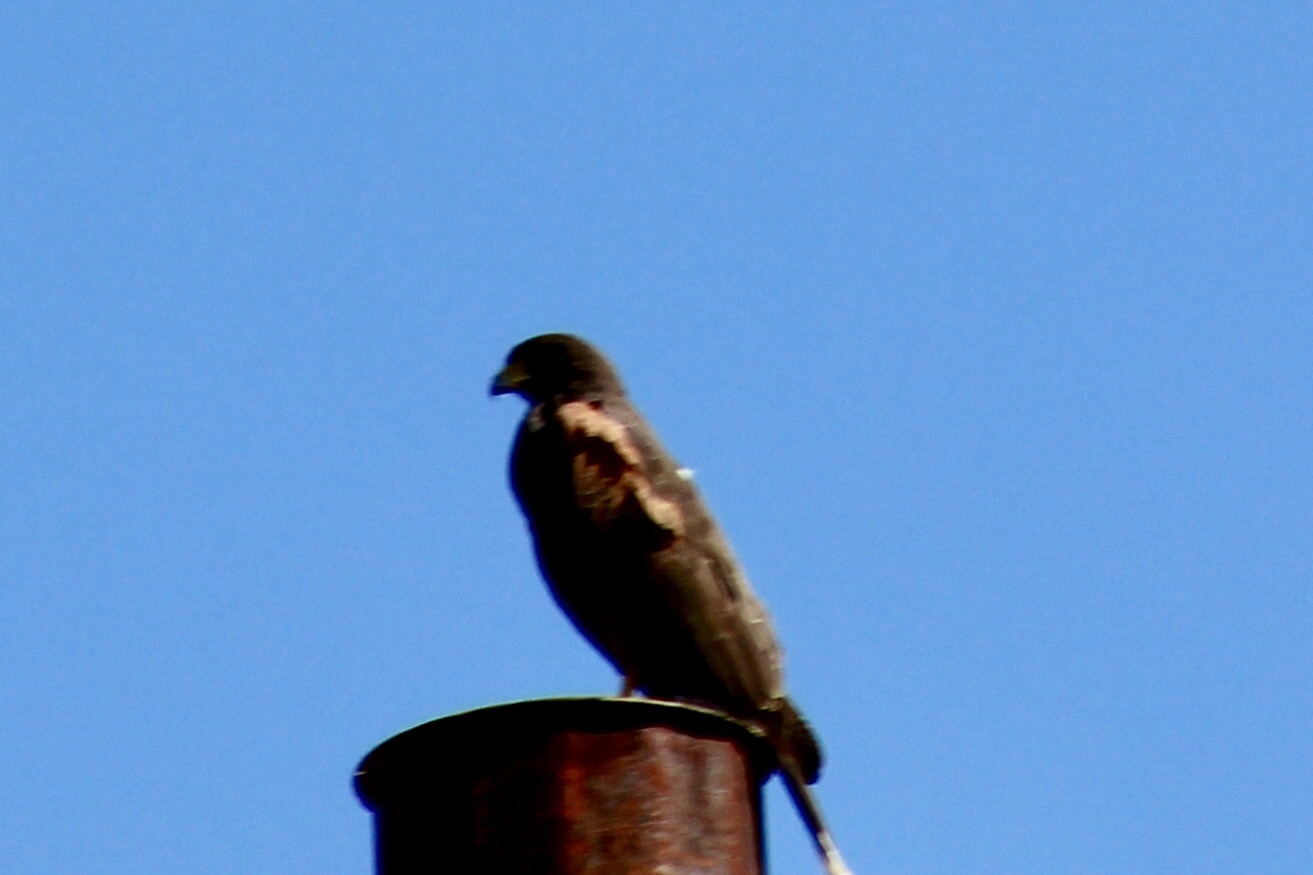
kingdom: Animalia
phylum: Chordata
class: Aves
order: Accipitriformes
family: Accipitridae
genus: Parabuteo
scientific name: Parabuteo unicinctus
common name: Harris's hawk
